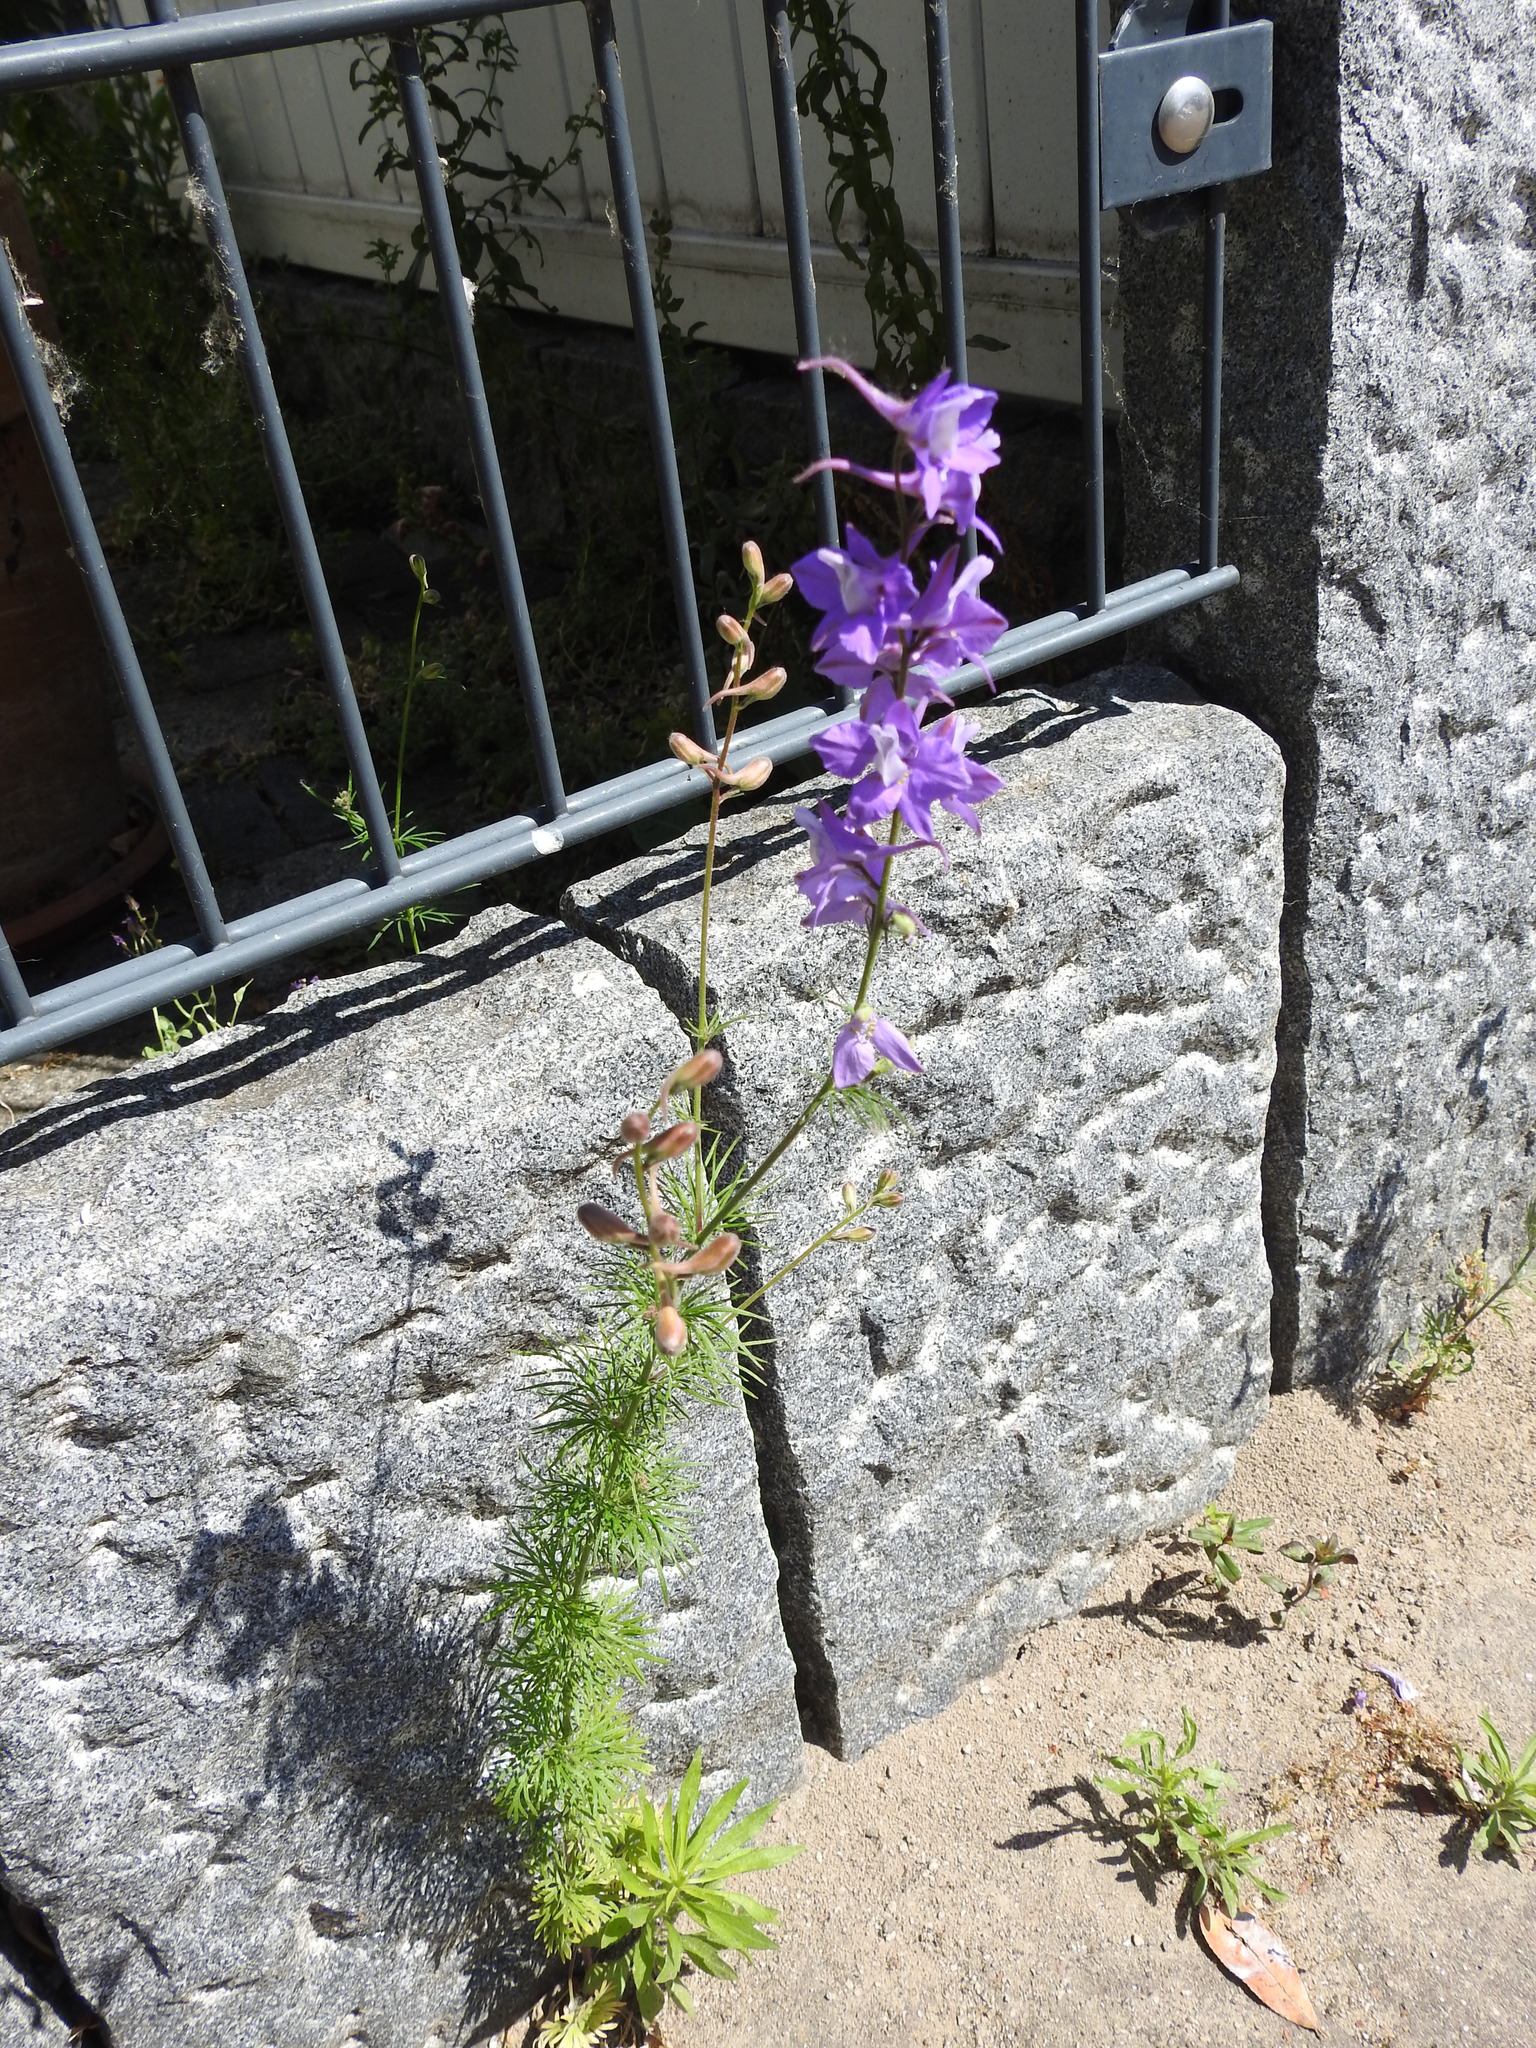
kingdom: Plantae
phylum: Tracheophyta
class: Magnoliopsida
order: Ranunculales
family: Ranunculaceae
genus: Delphinium
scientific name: Delphinium ajacis
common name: Doubtful knight's-spur
